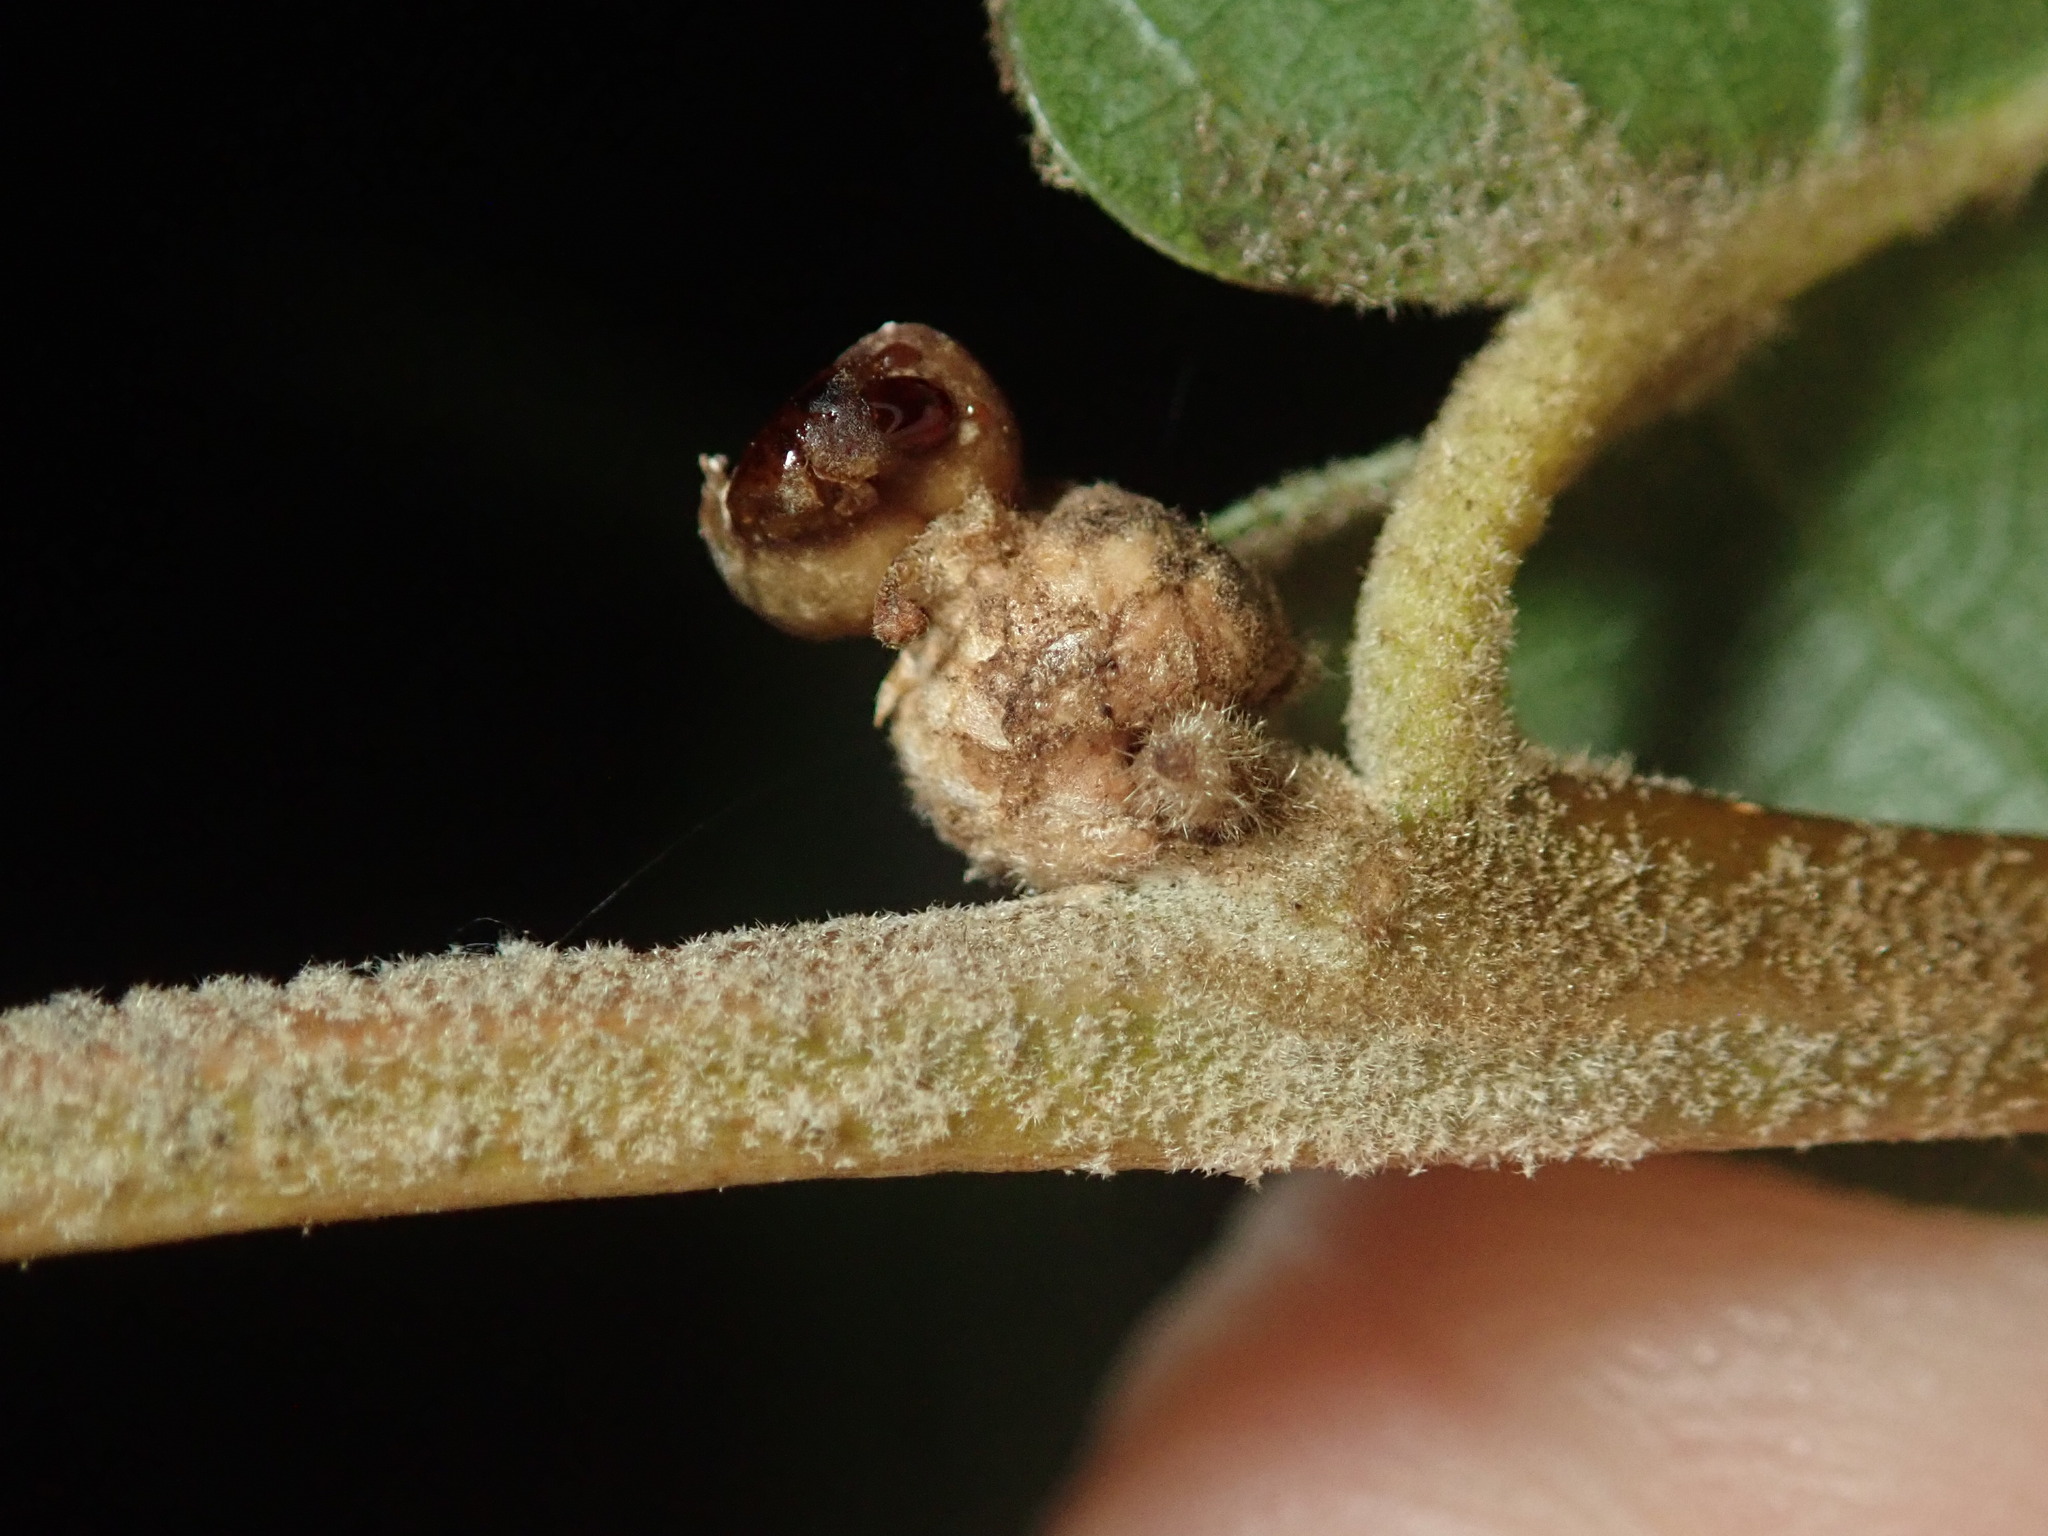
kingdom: Animalia
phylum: Arthropoda
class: Insecta
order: Hymenoptera
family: Cynipidae
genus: Andricus
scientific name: Andricus
